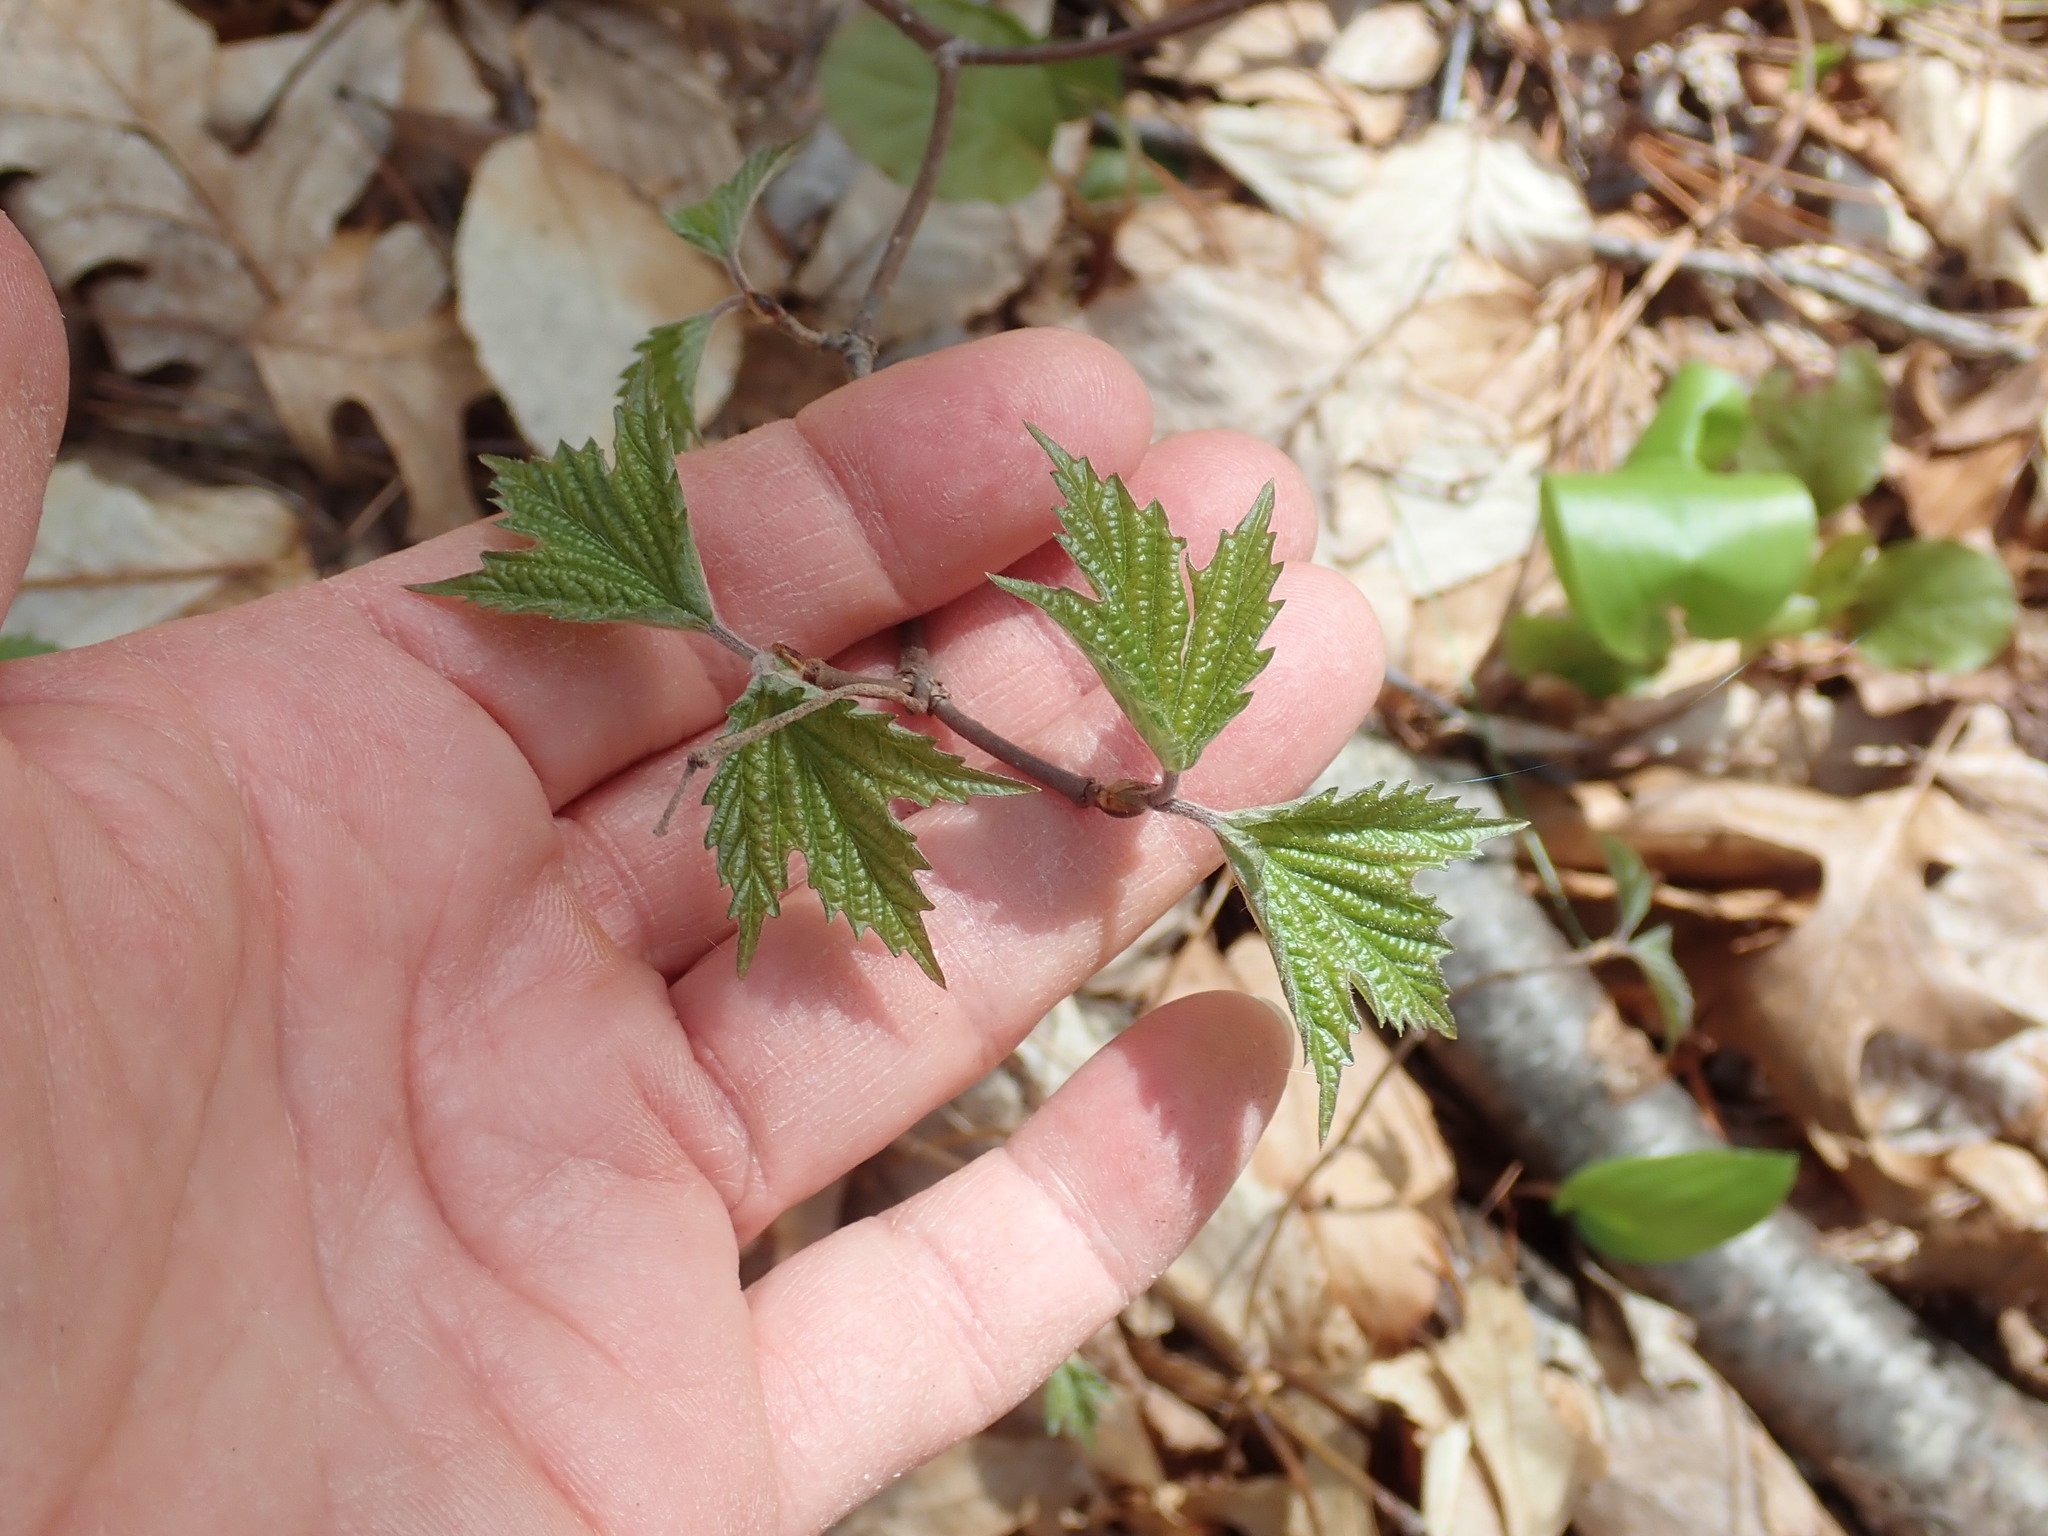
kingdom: Plantae
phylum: Tracheophyta
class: Magnoliopsida
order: Dipsacales
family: Viburnaceae
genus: Viburnum
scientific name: Viburnum acerifolium
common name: Dockmackie
